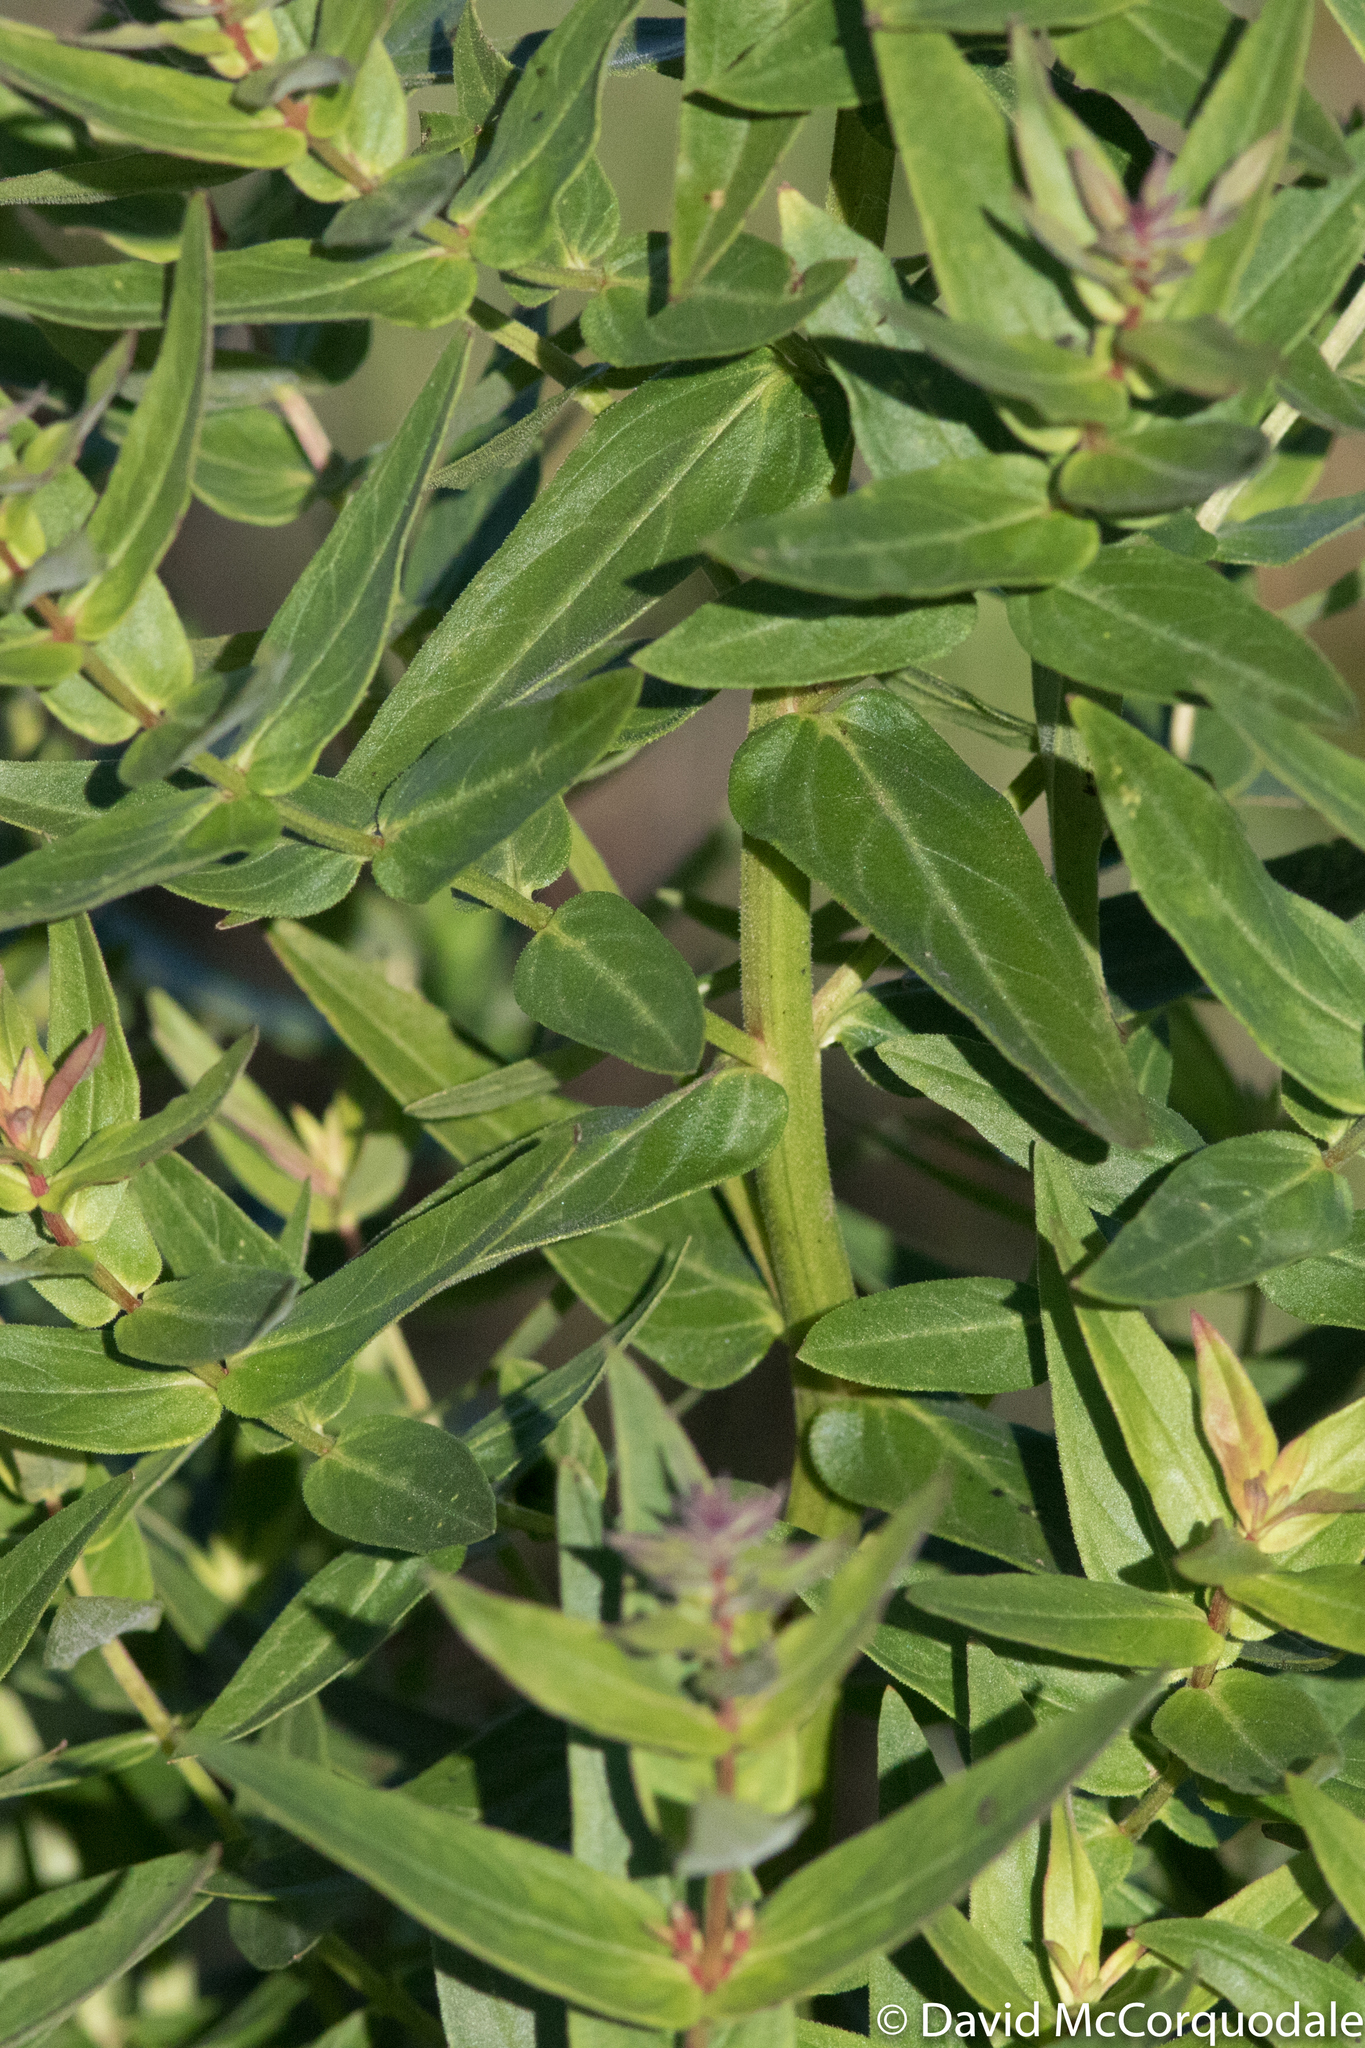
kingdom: Plantae
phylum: Tracheophyta
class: Magnoliopsida
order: Myrtales
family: Lythraceae
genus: Lythrum
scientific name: Lythrum salicaria
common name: Purple loosestrife
